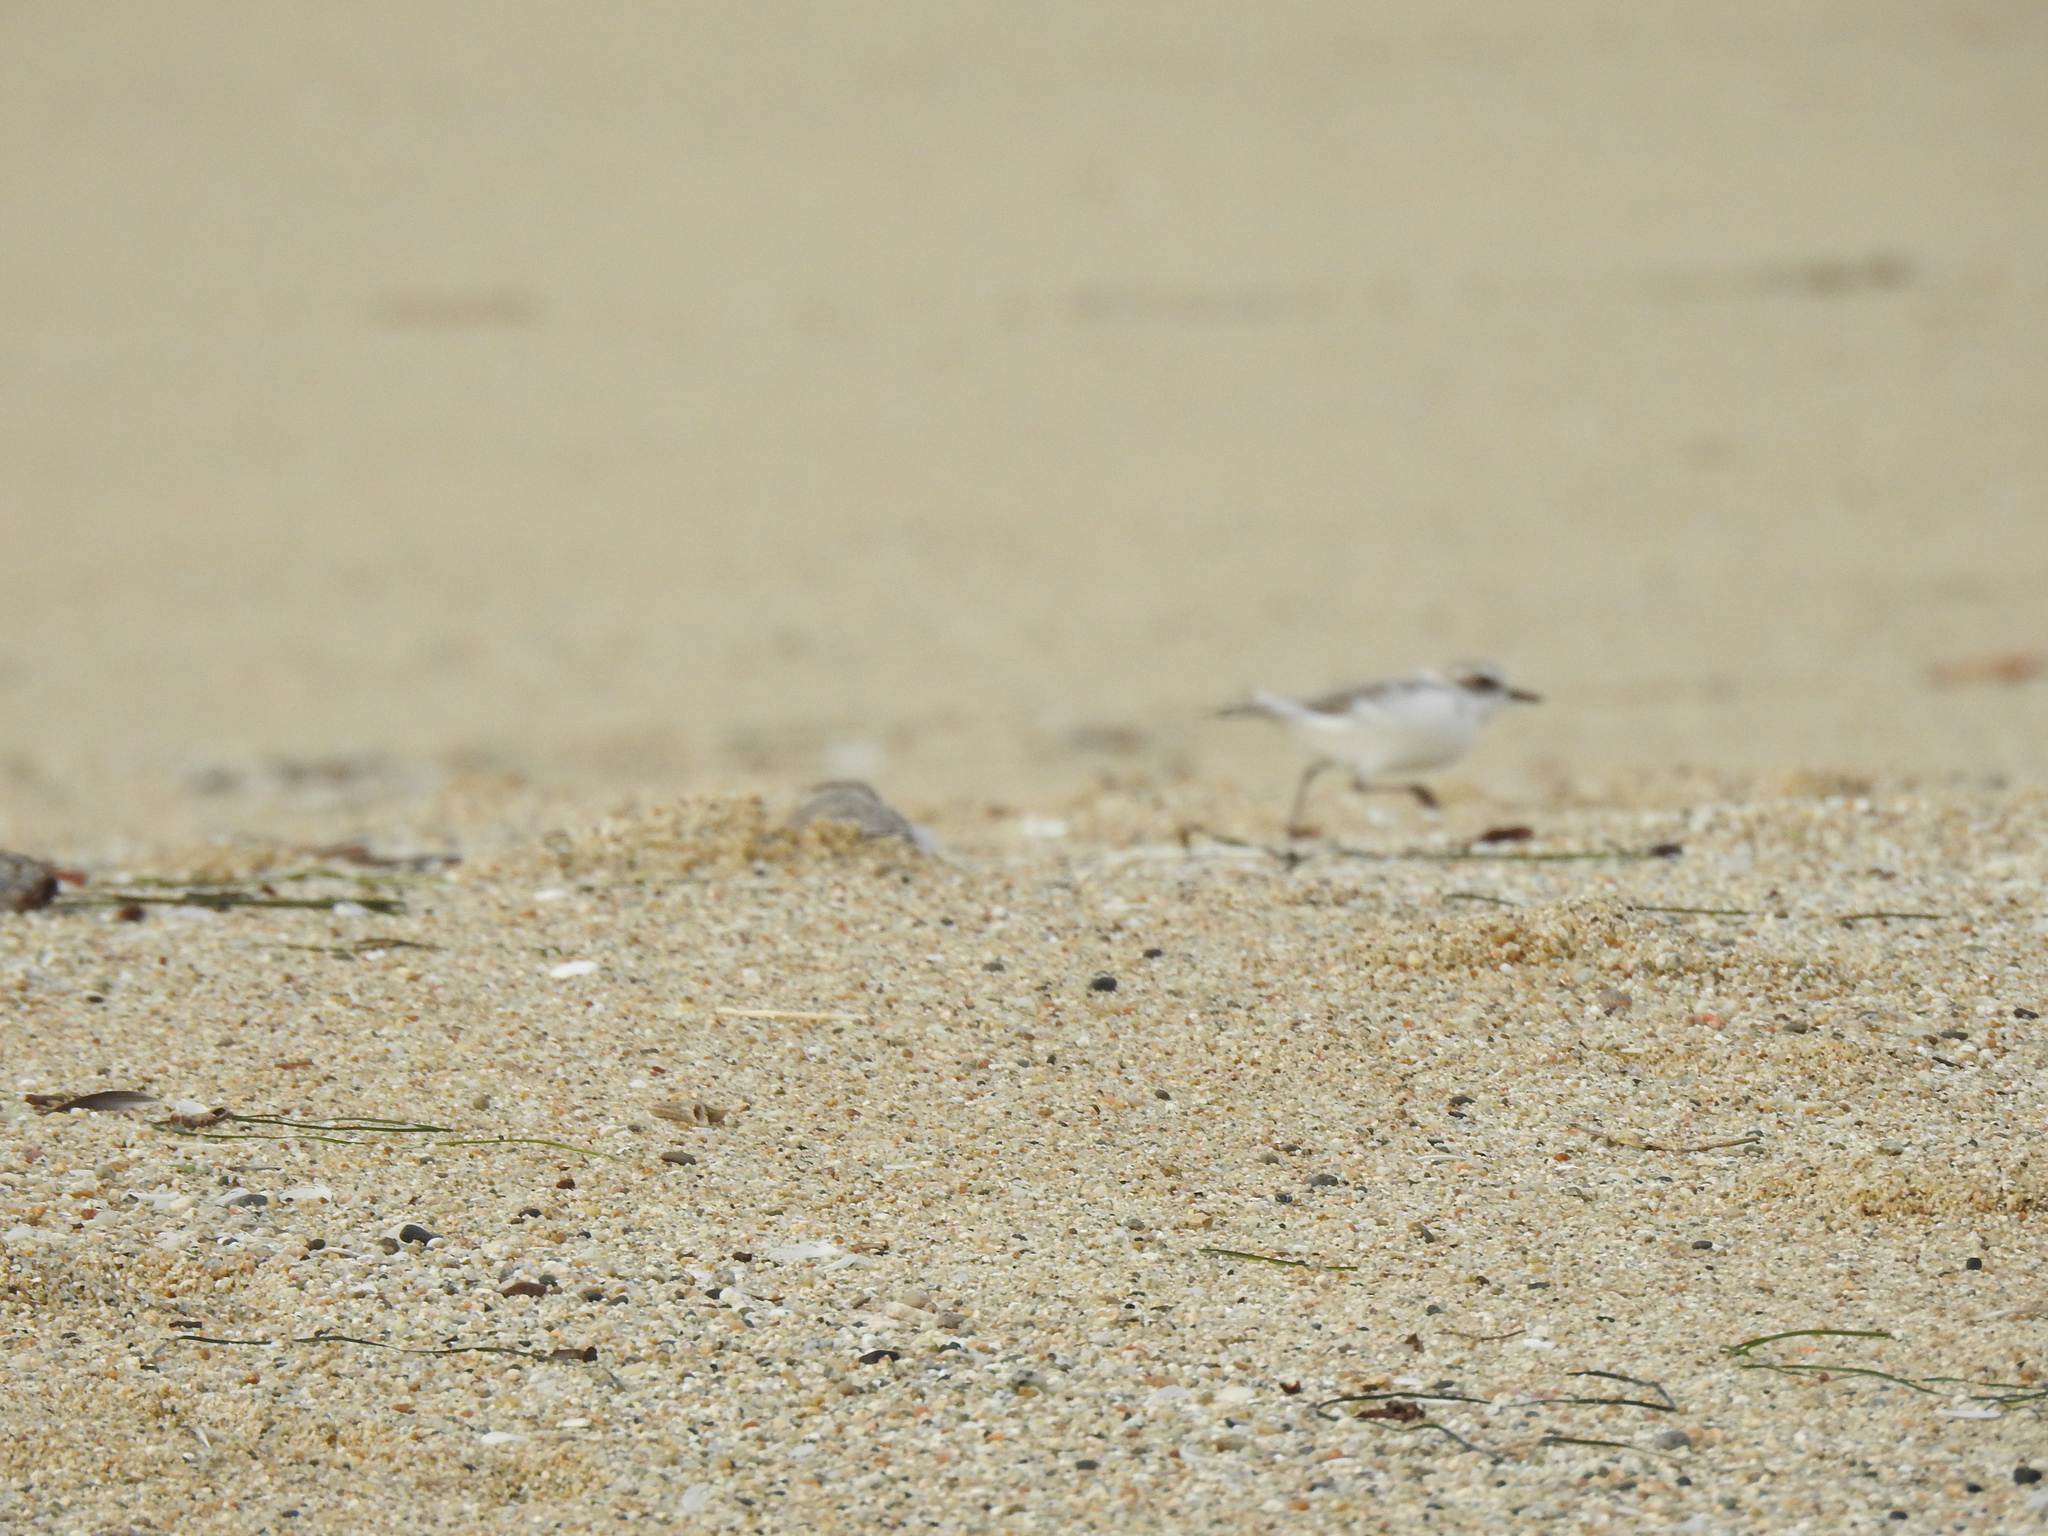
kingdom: Animalia
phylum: Chordata
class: Aves
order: Charadriiformes
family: Charadriidae
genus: Anarhynchus
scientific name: Anarhynchus
